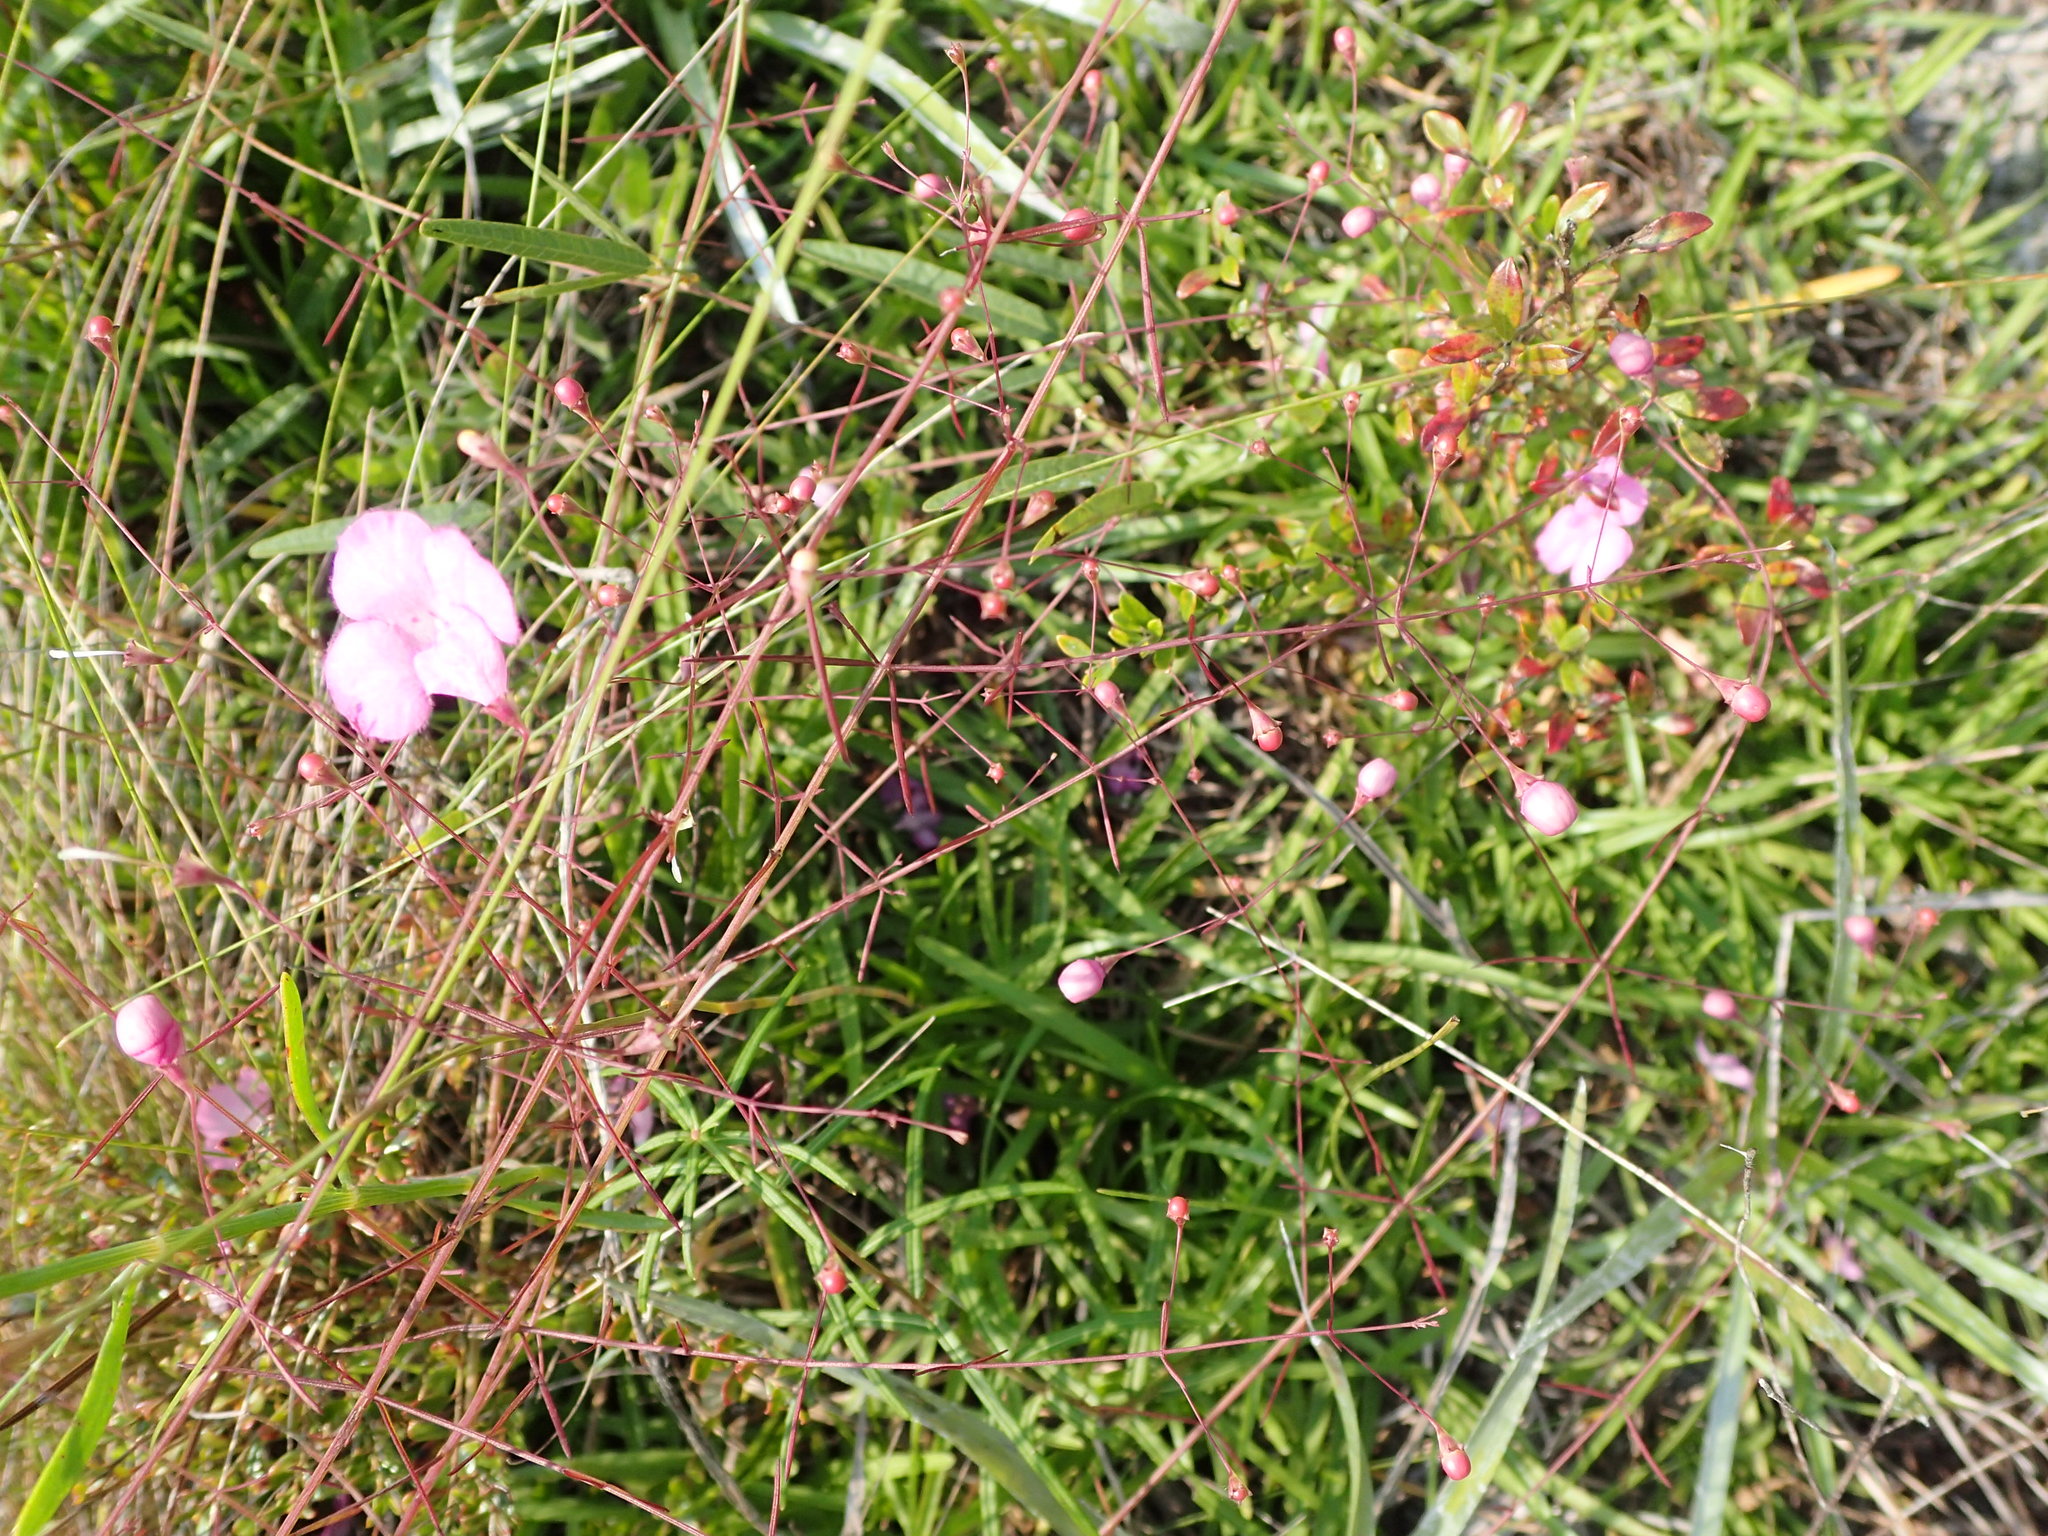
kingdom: Plantae
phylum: Tracheophyta
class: Magnoliopsida
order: Lamiales
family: Orobanchaceae
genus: Agalinis
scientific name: Agalinis divaricata
